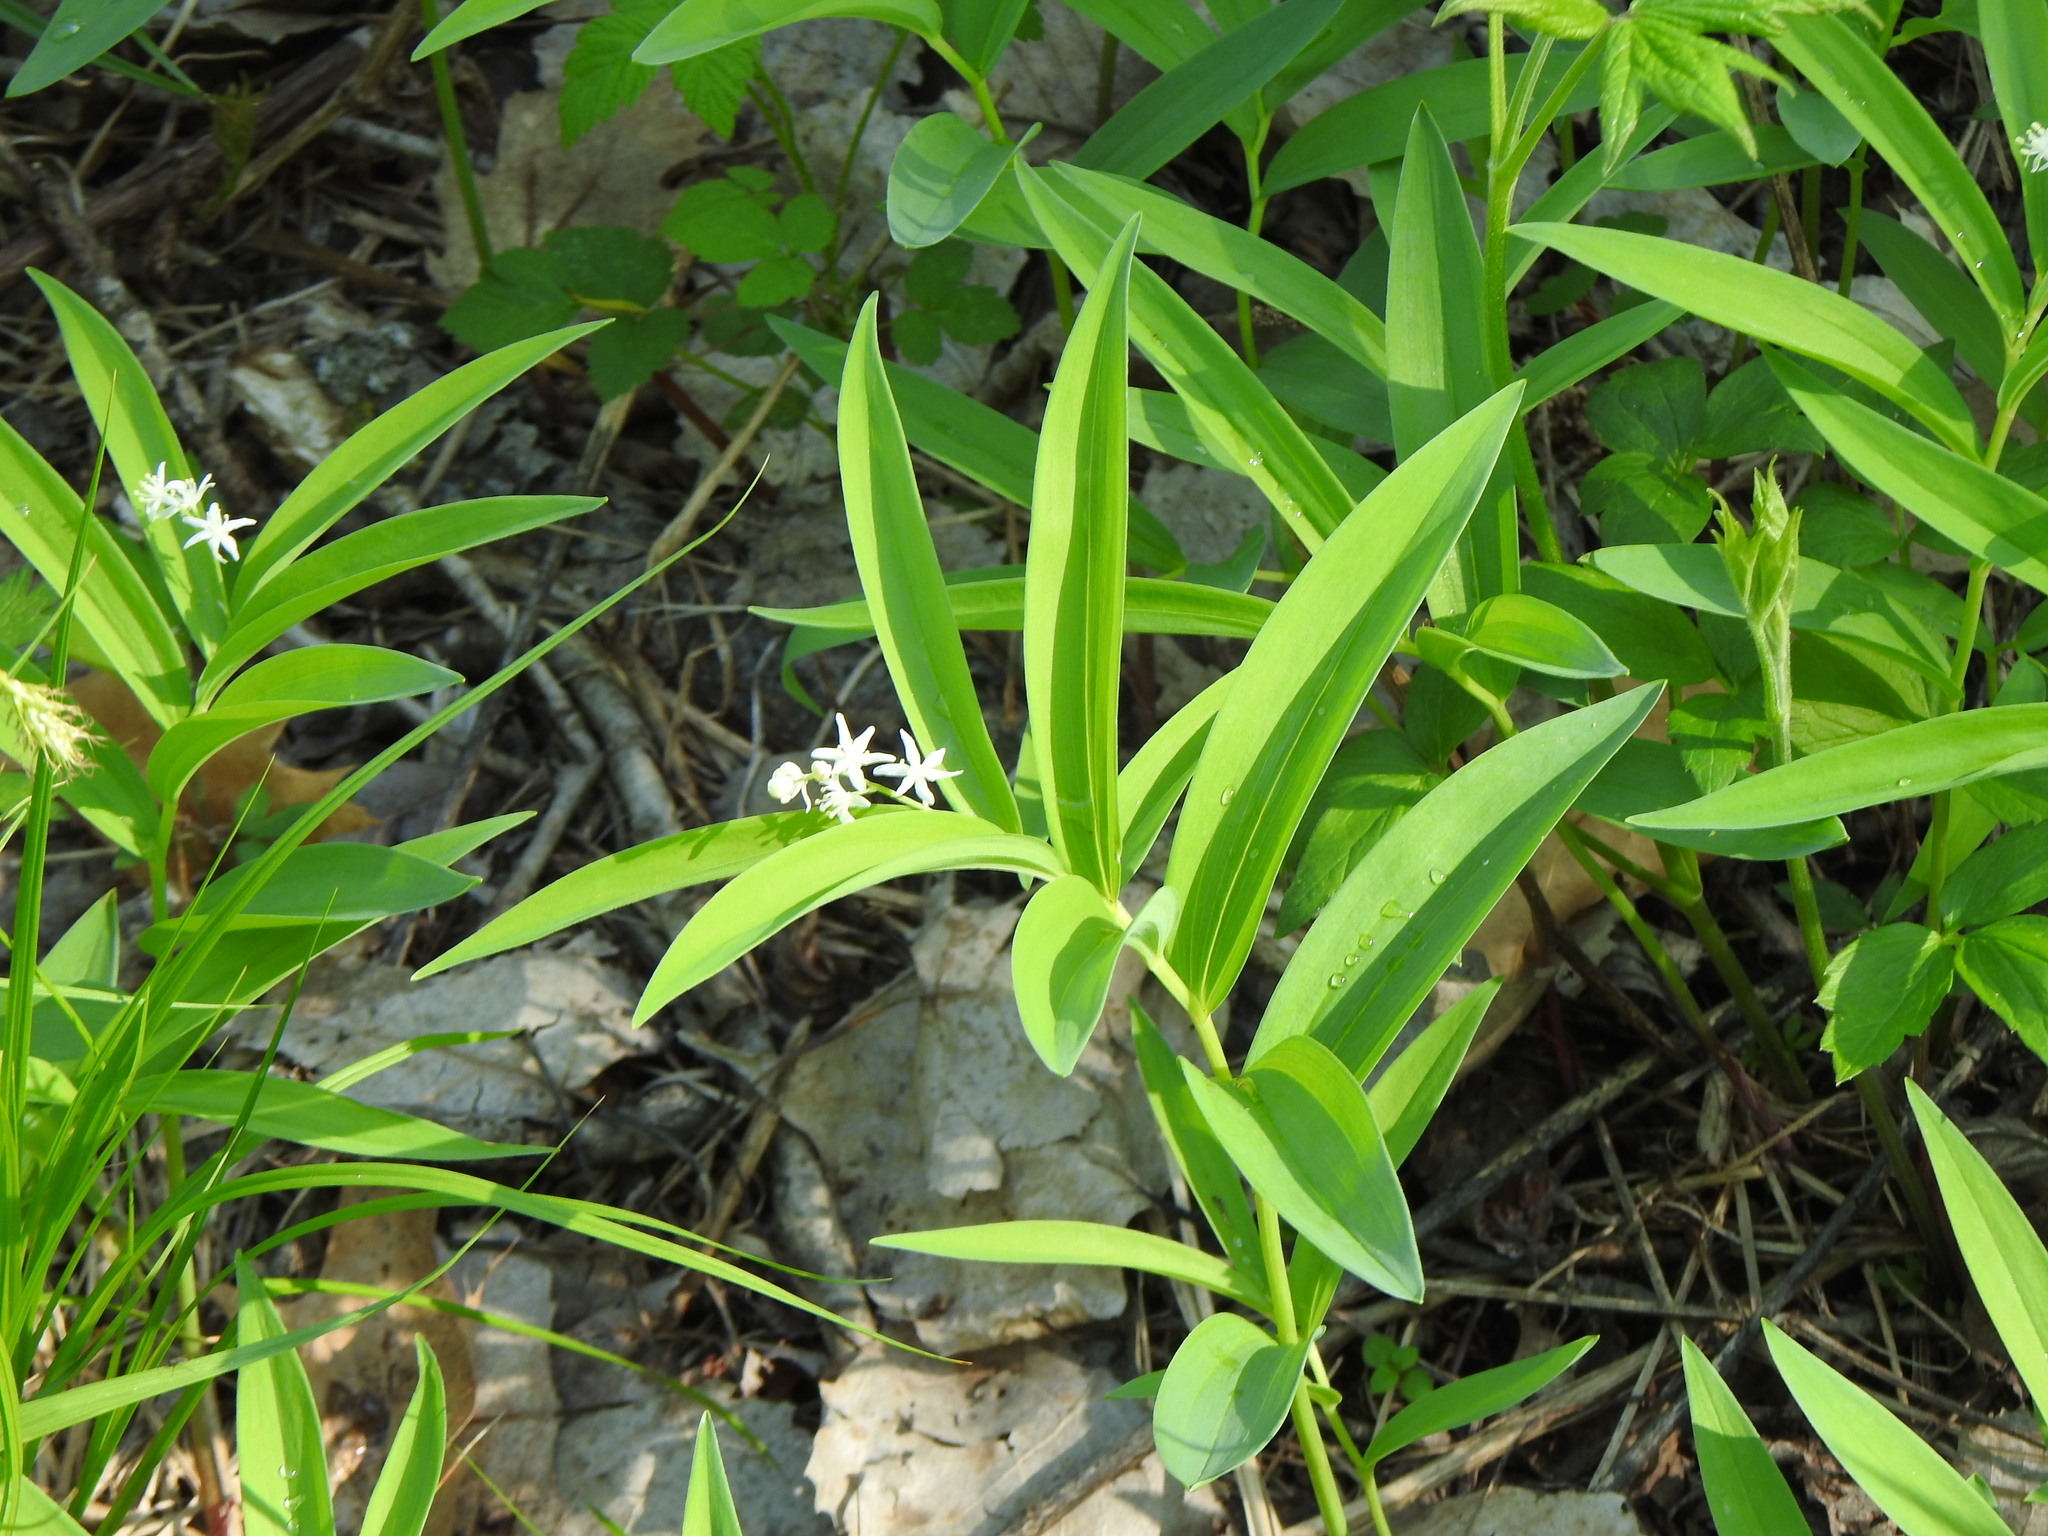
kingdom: Plantae
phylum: Tracheophyta
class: Liliopsida
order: Asparagales
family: Asparagaceae
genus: Maianthemum
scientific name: Maianthemum stellatum
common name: Little false solomon's seal
